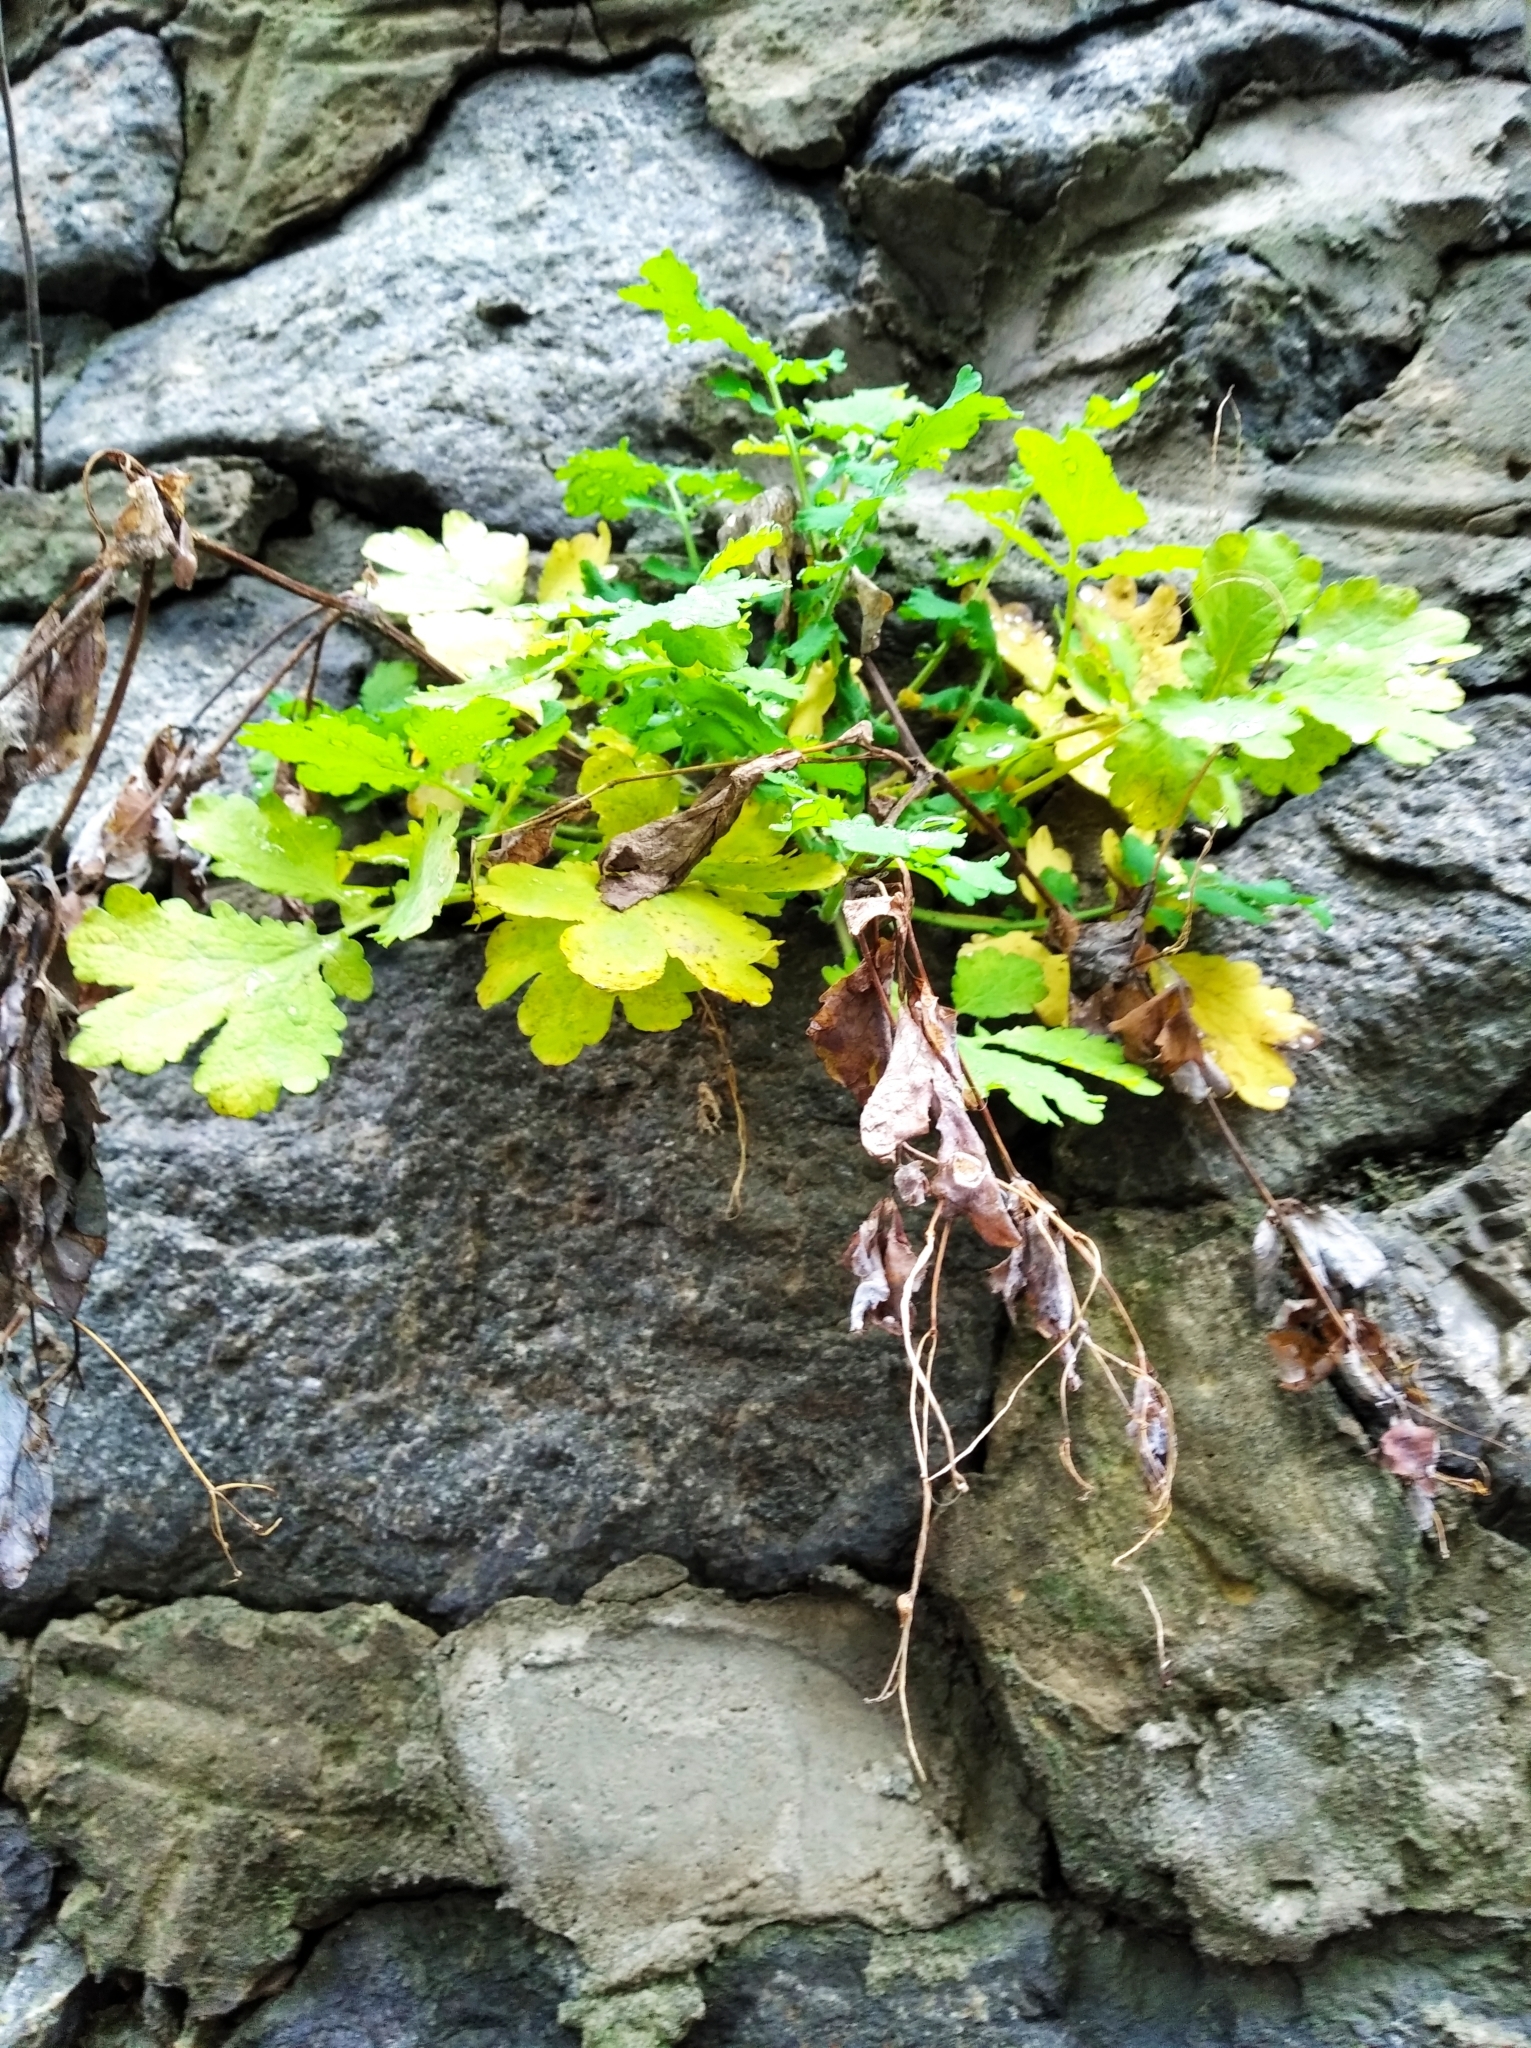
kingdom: Plantae
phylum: Tracheophyta
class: Magnoliopsida
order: Ranunculales
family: Papaveraceae
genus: Chelidonium
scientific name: Chelidonium majus
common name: Greater celandine
